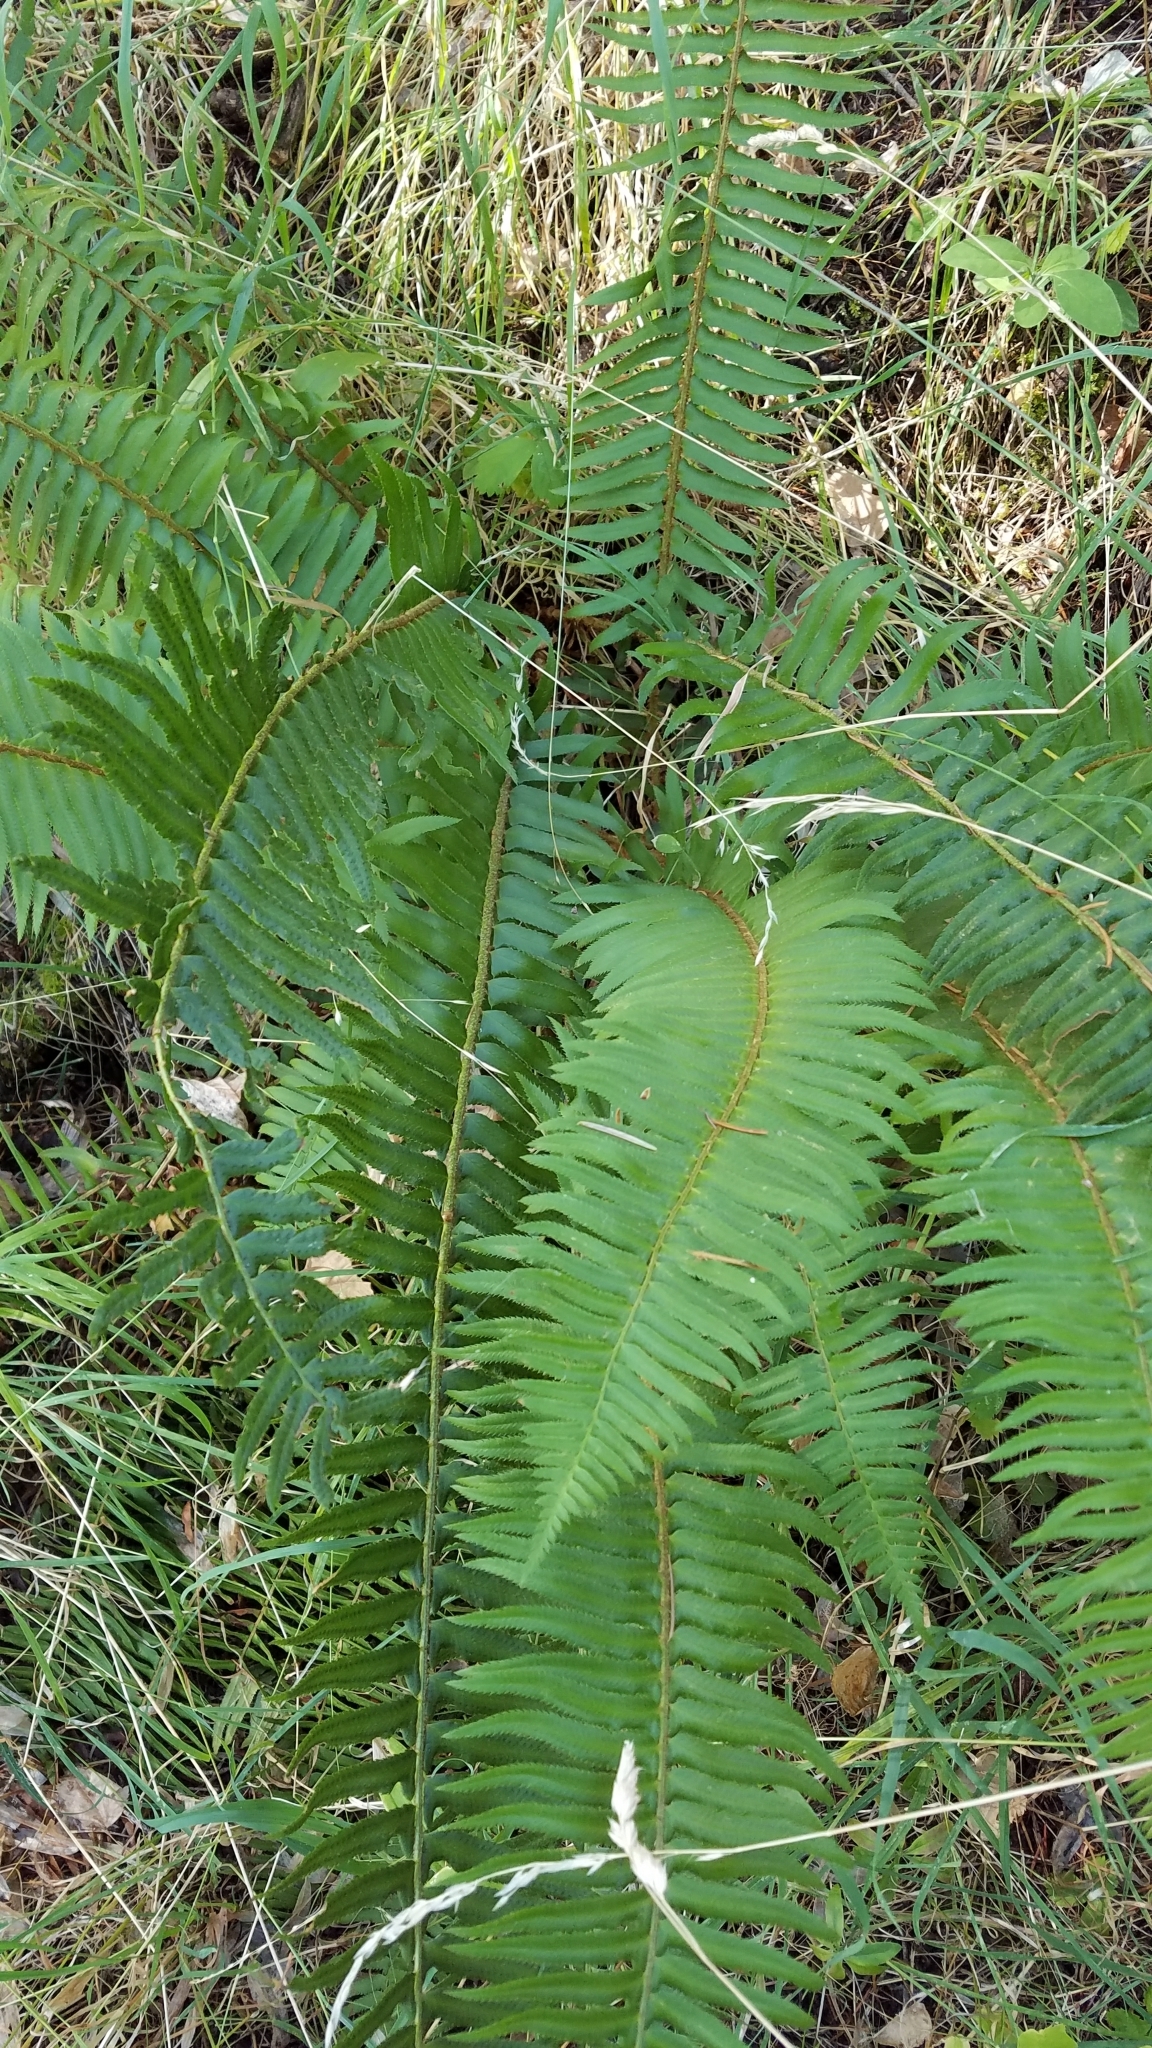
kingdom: Plantae
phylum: Tracheophyta
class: Polypodiopsida
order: Polypodiales
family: Dryopteridaceae
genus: Polystichum
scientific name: Polystichum munitum
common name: Western sword-fern
